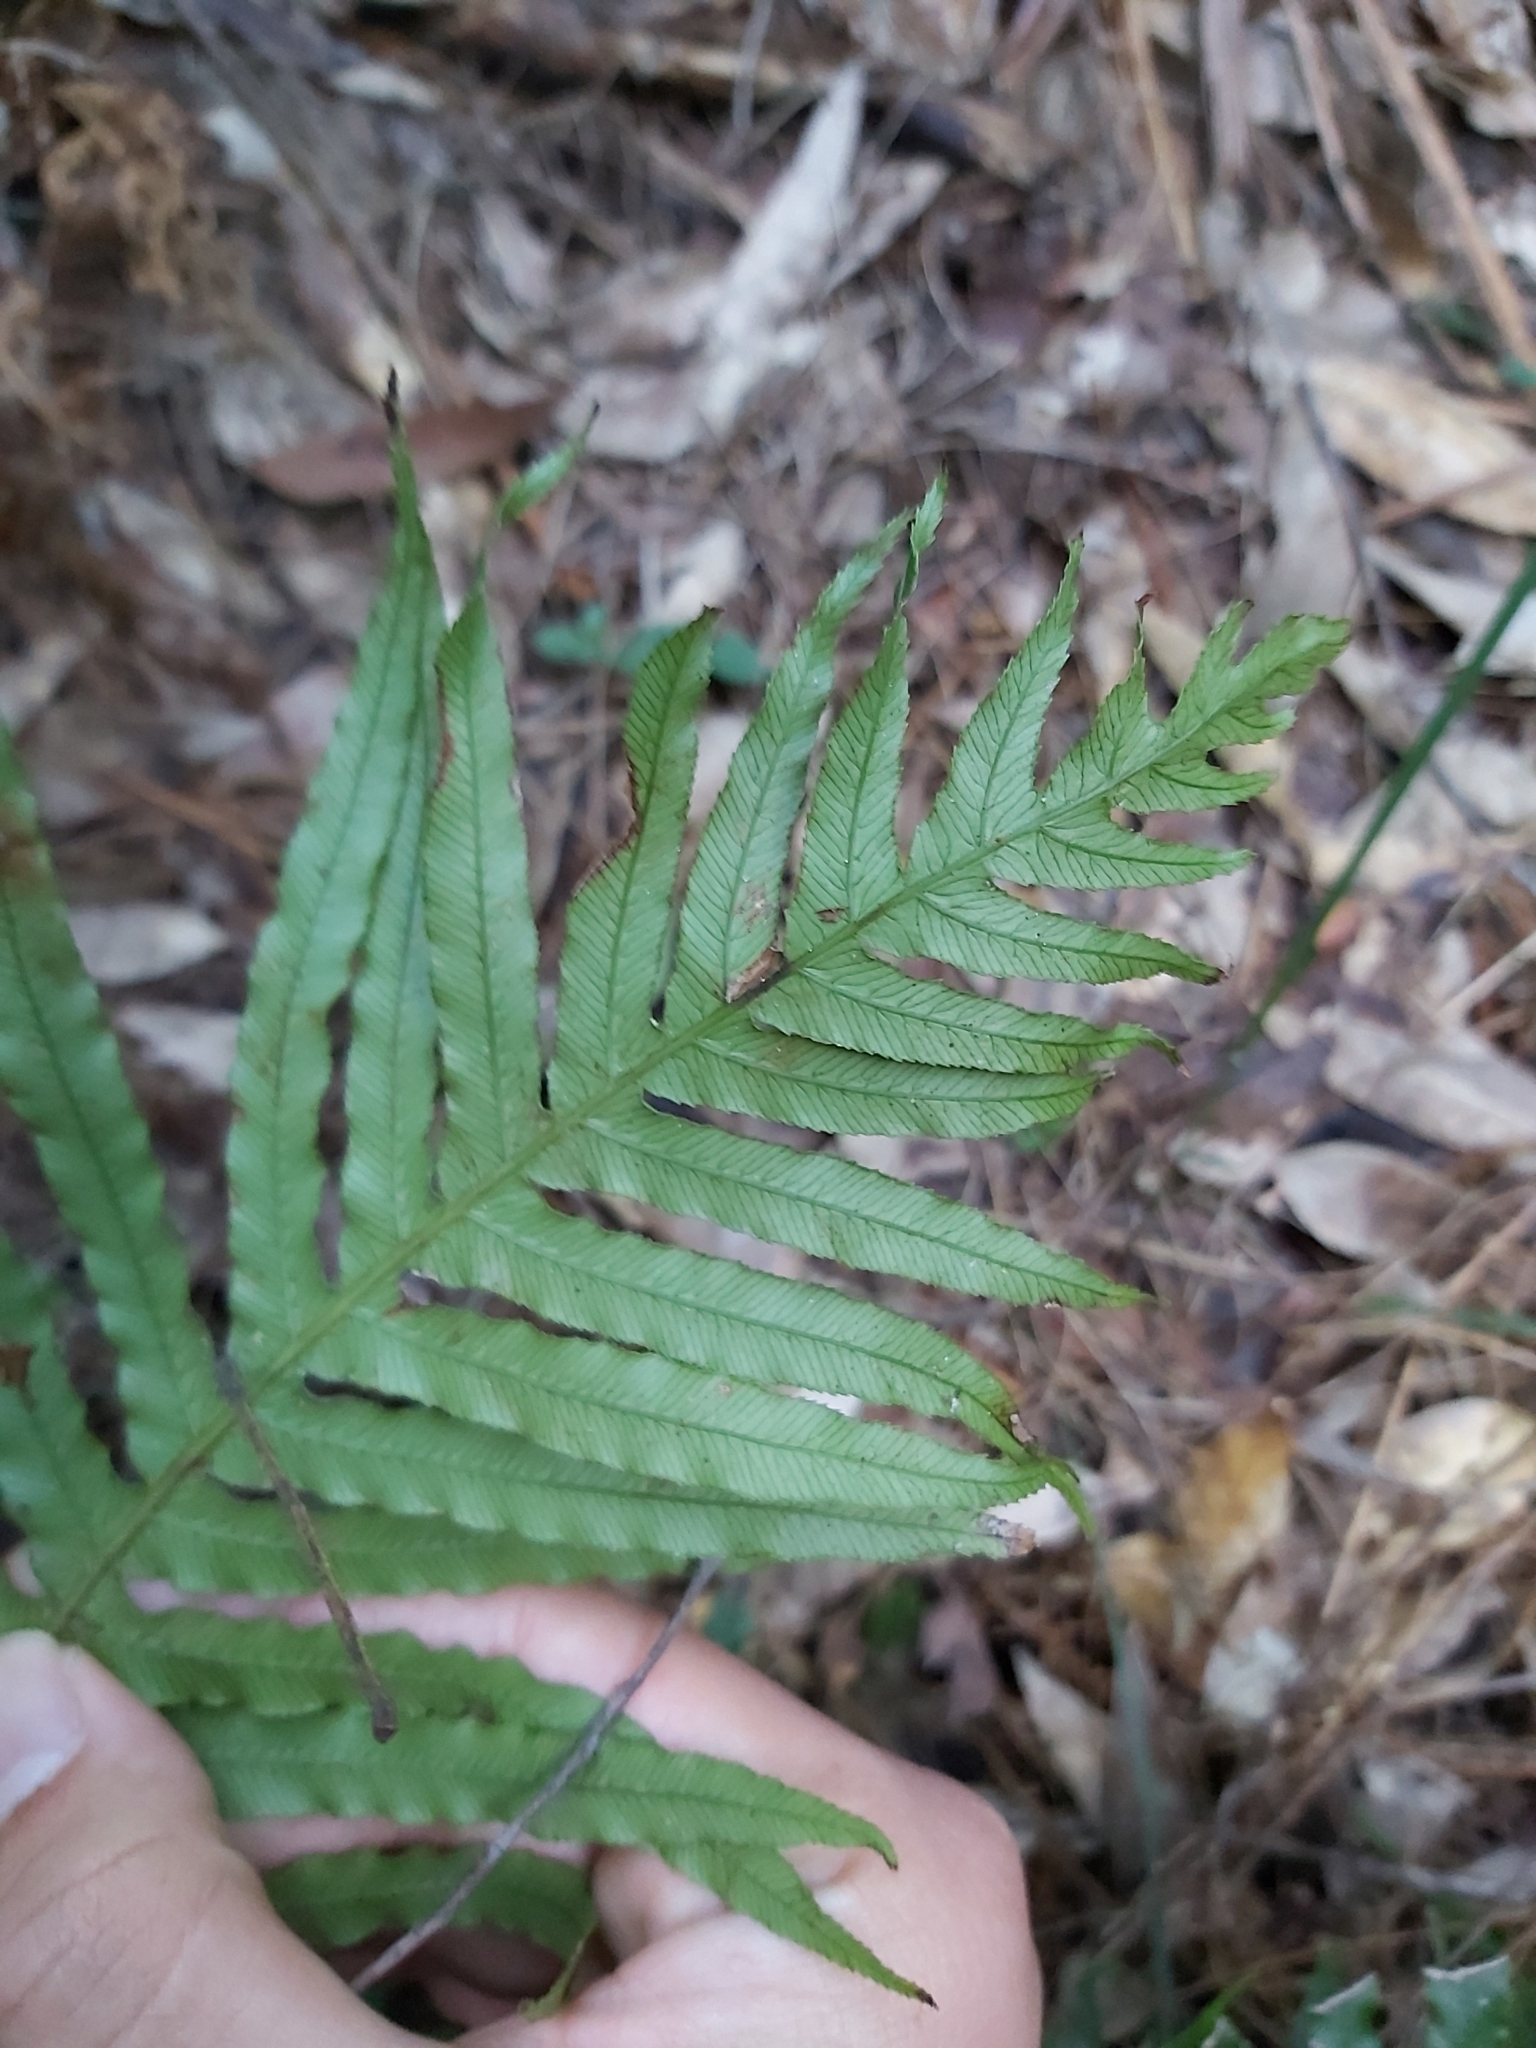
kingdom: Plantae
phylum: Tracheophyta
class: Polypodiopsida
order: Polypodiales
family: Blechnaceae
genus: Oceaniopteris
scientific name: Oceaniopteris cartilaginea
